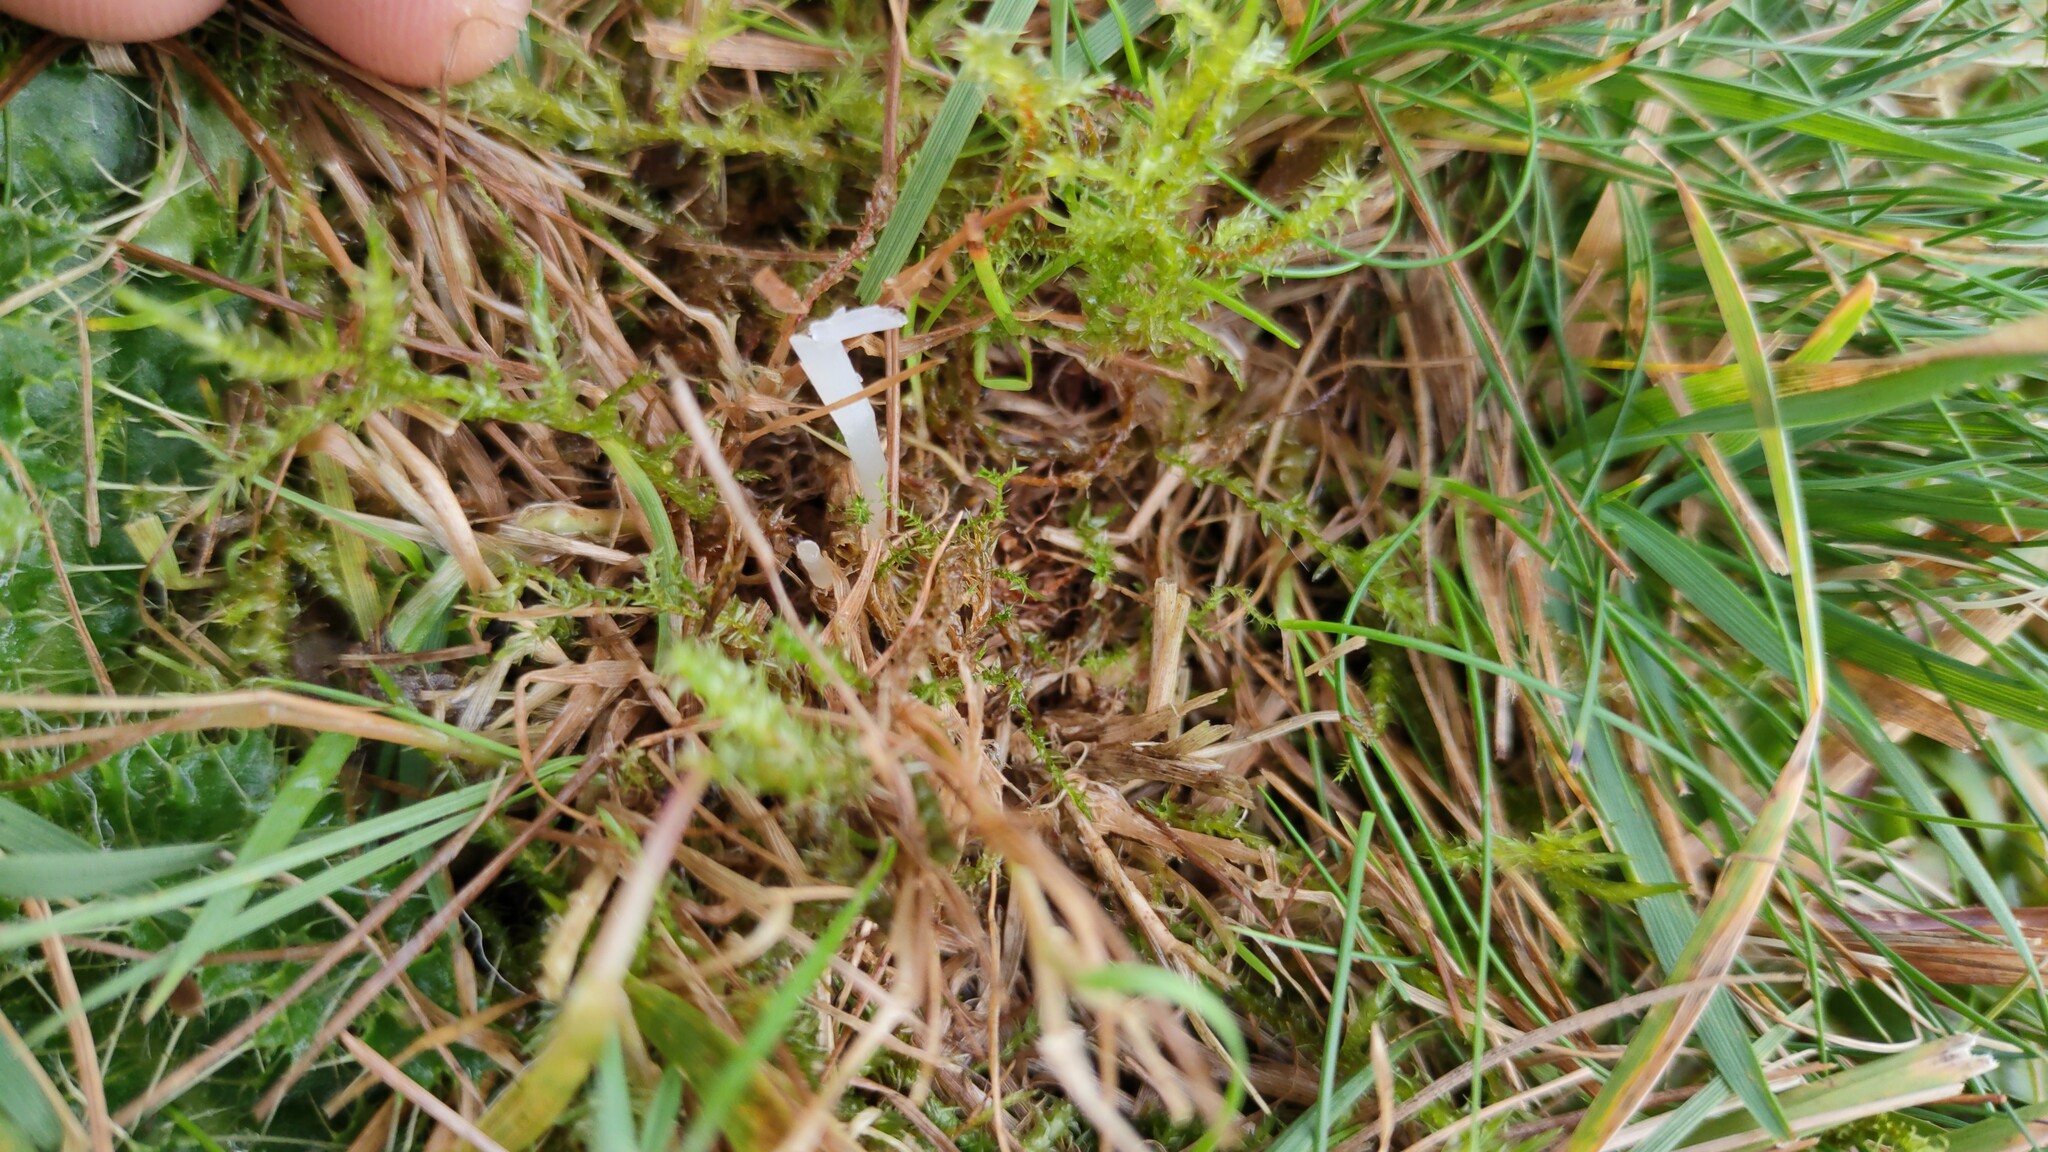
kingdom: Fungi
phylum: Basidiomycota
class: Agaricomycetes
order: Agaricales
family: Clavariaceae
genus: Clavaria
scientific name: Clavaria acuta
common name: Pointed club
